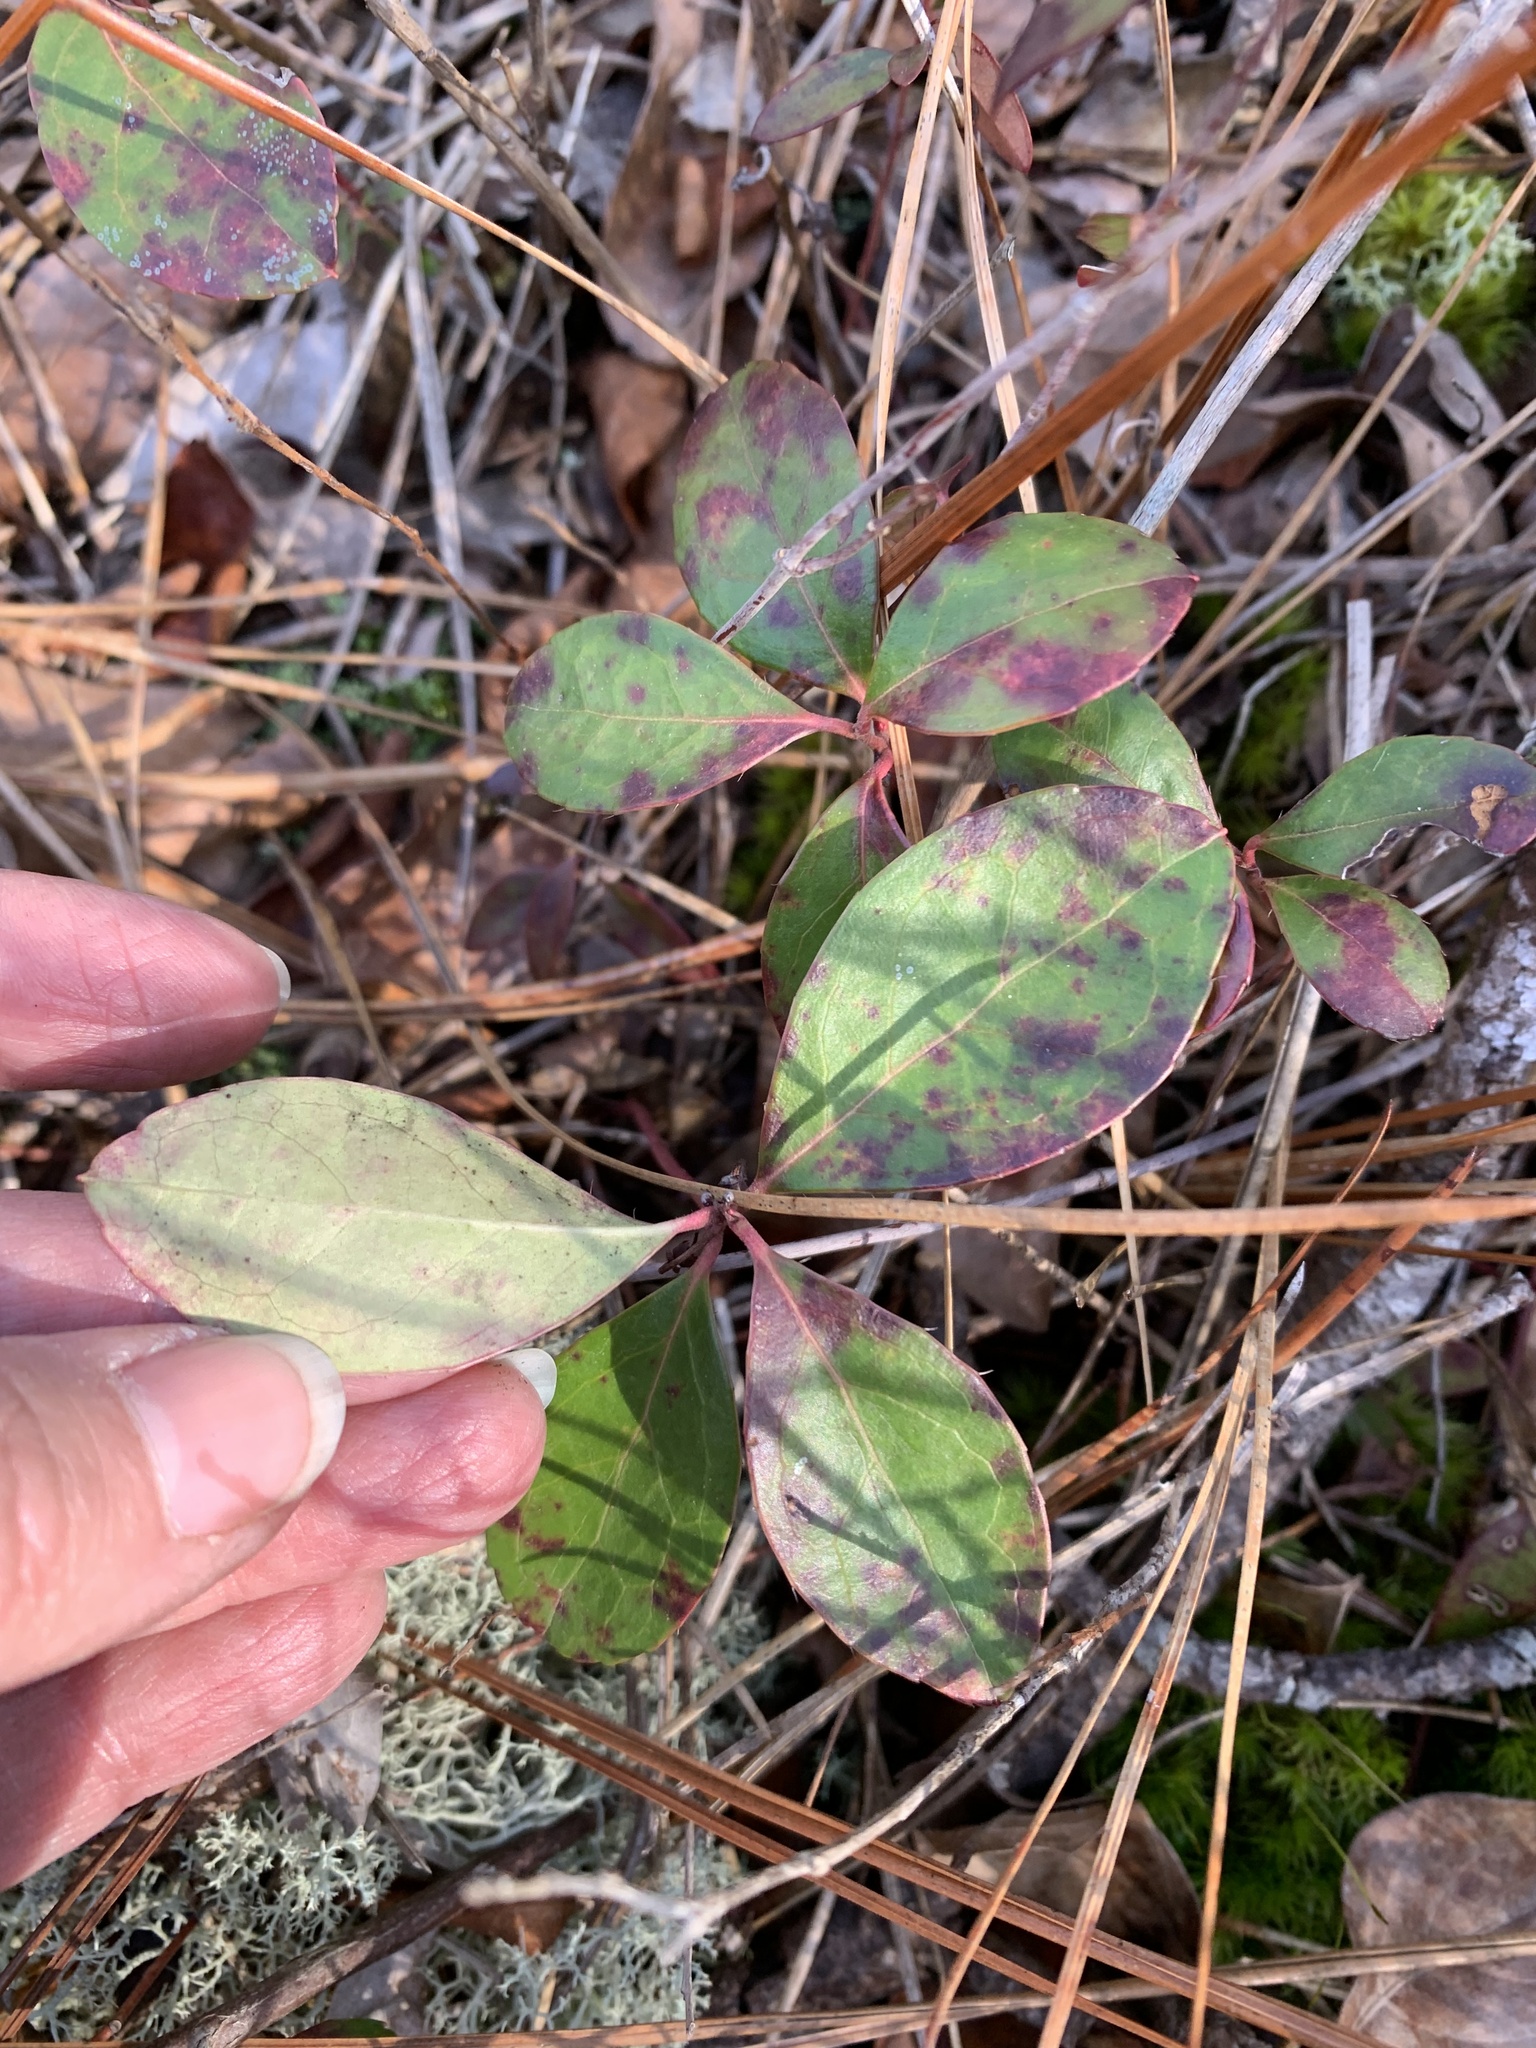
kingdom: Plantae
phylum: Tracheophyta
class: Magnoliopsida
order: Ericales
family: Ericaceae
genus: Gaultheria
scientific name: Gaultheria procumbens
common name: Checkerberry
